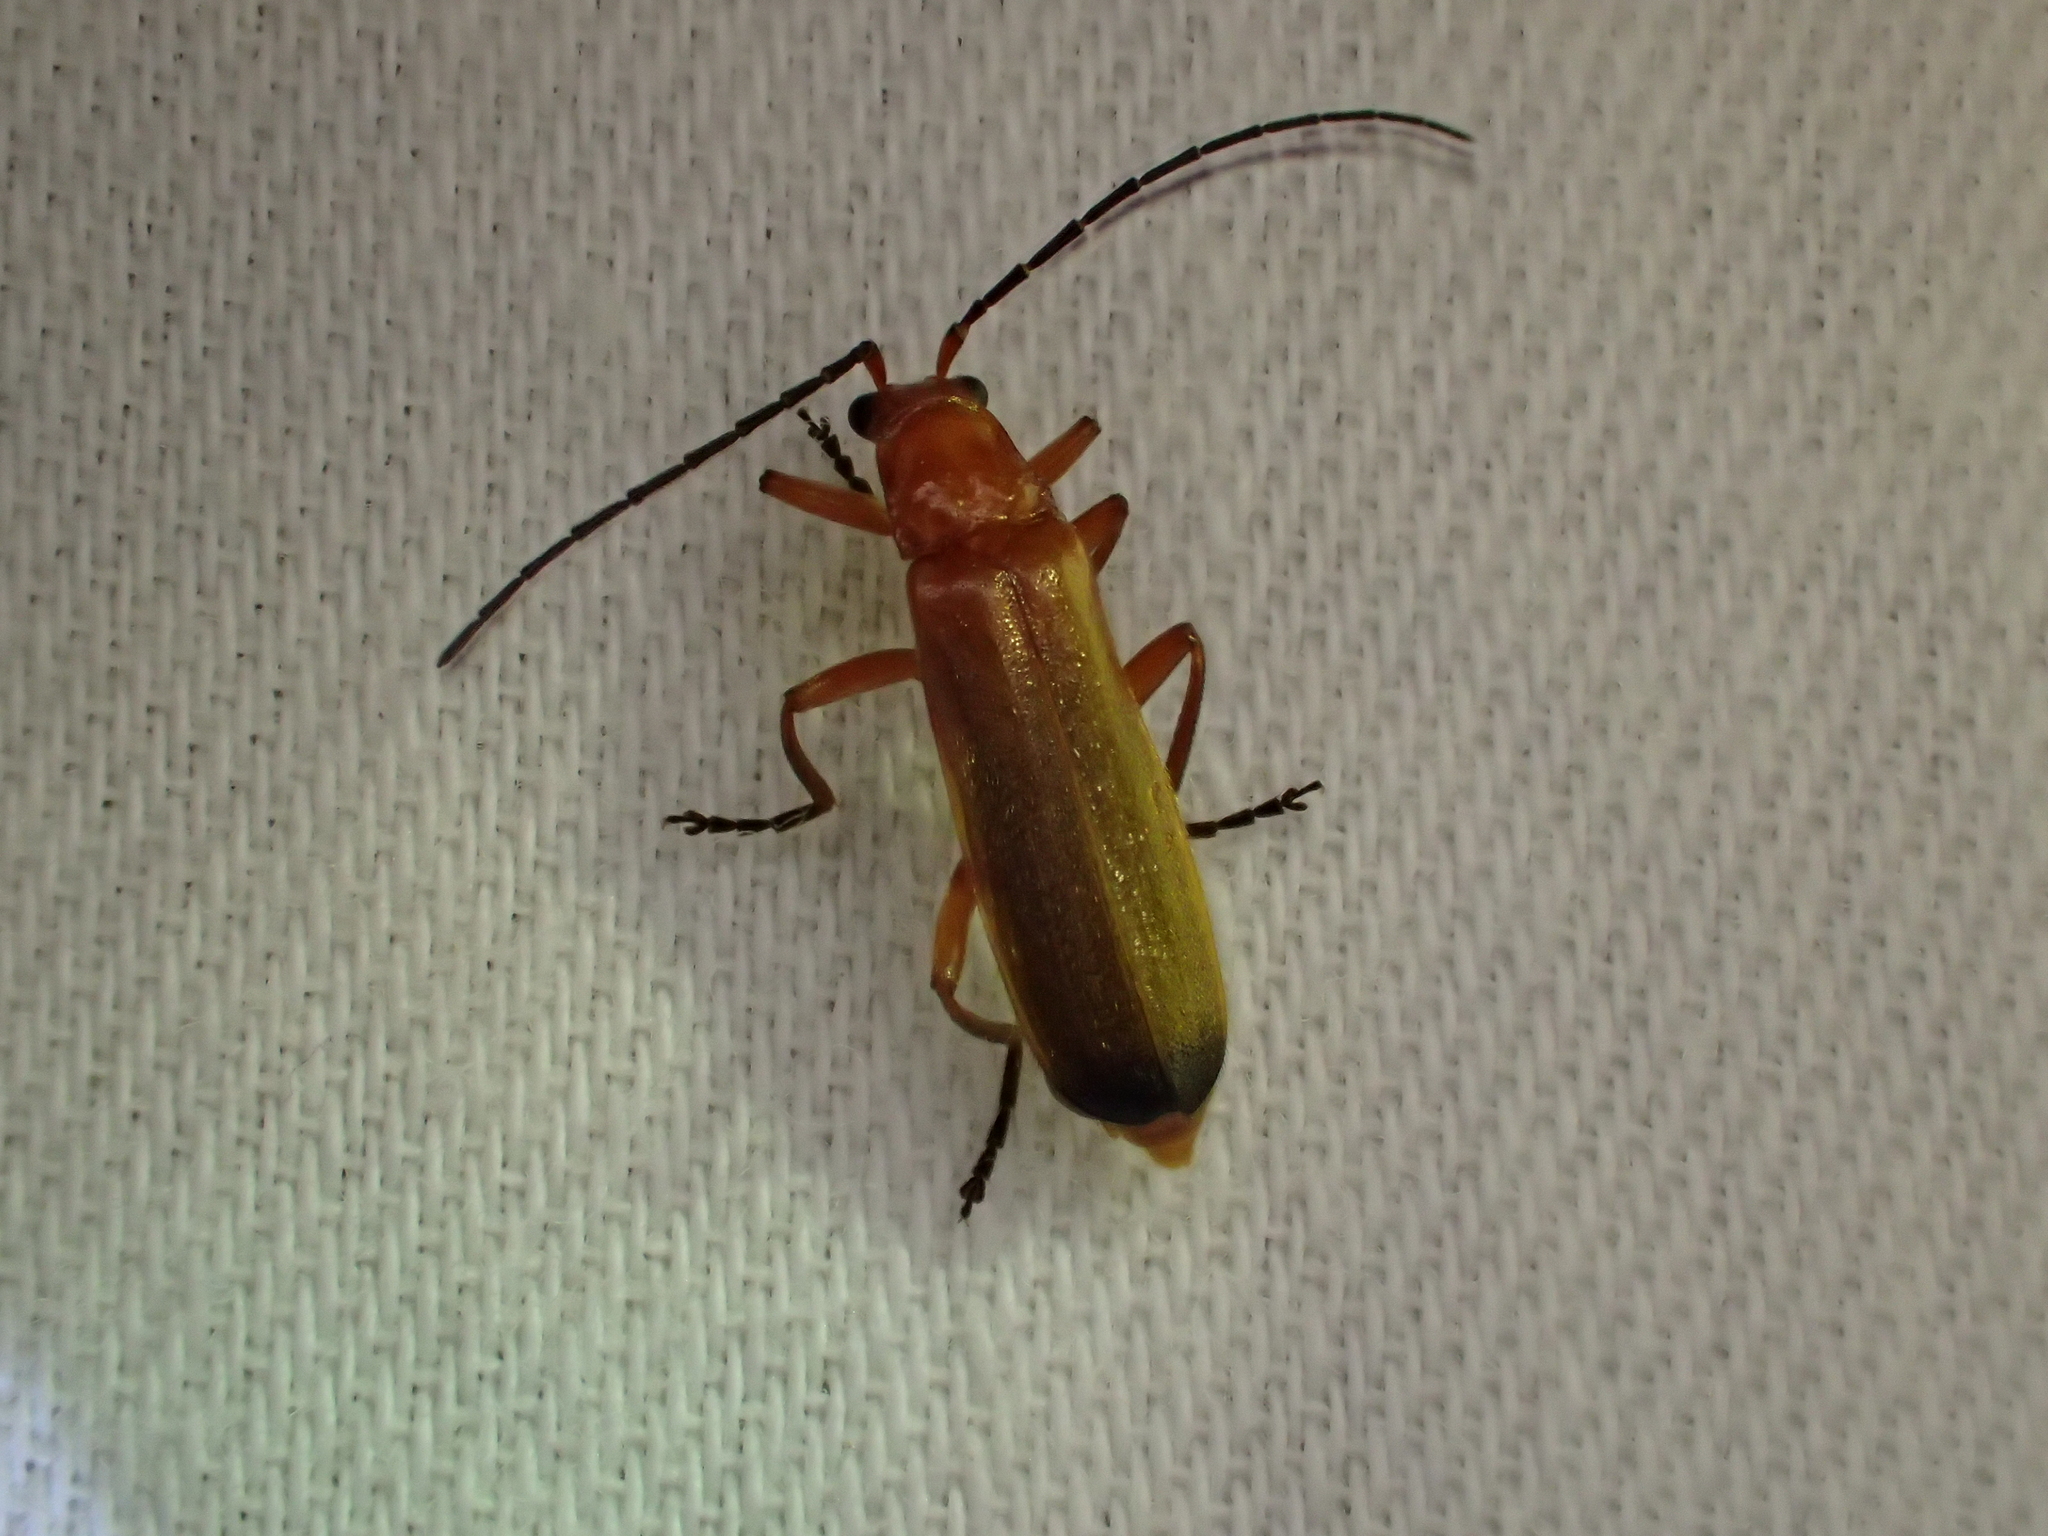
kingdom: Animalia
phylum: Arthropoda
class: Insecta
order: Coleoptera
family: Cantharidae
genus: Rhagonycha
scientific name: Rhagonycha fulva
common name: Common red soldier beetle
